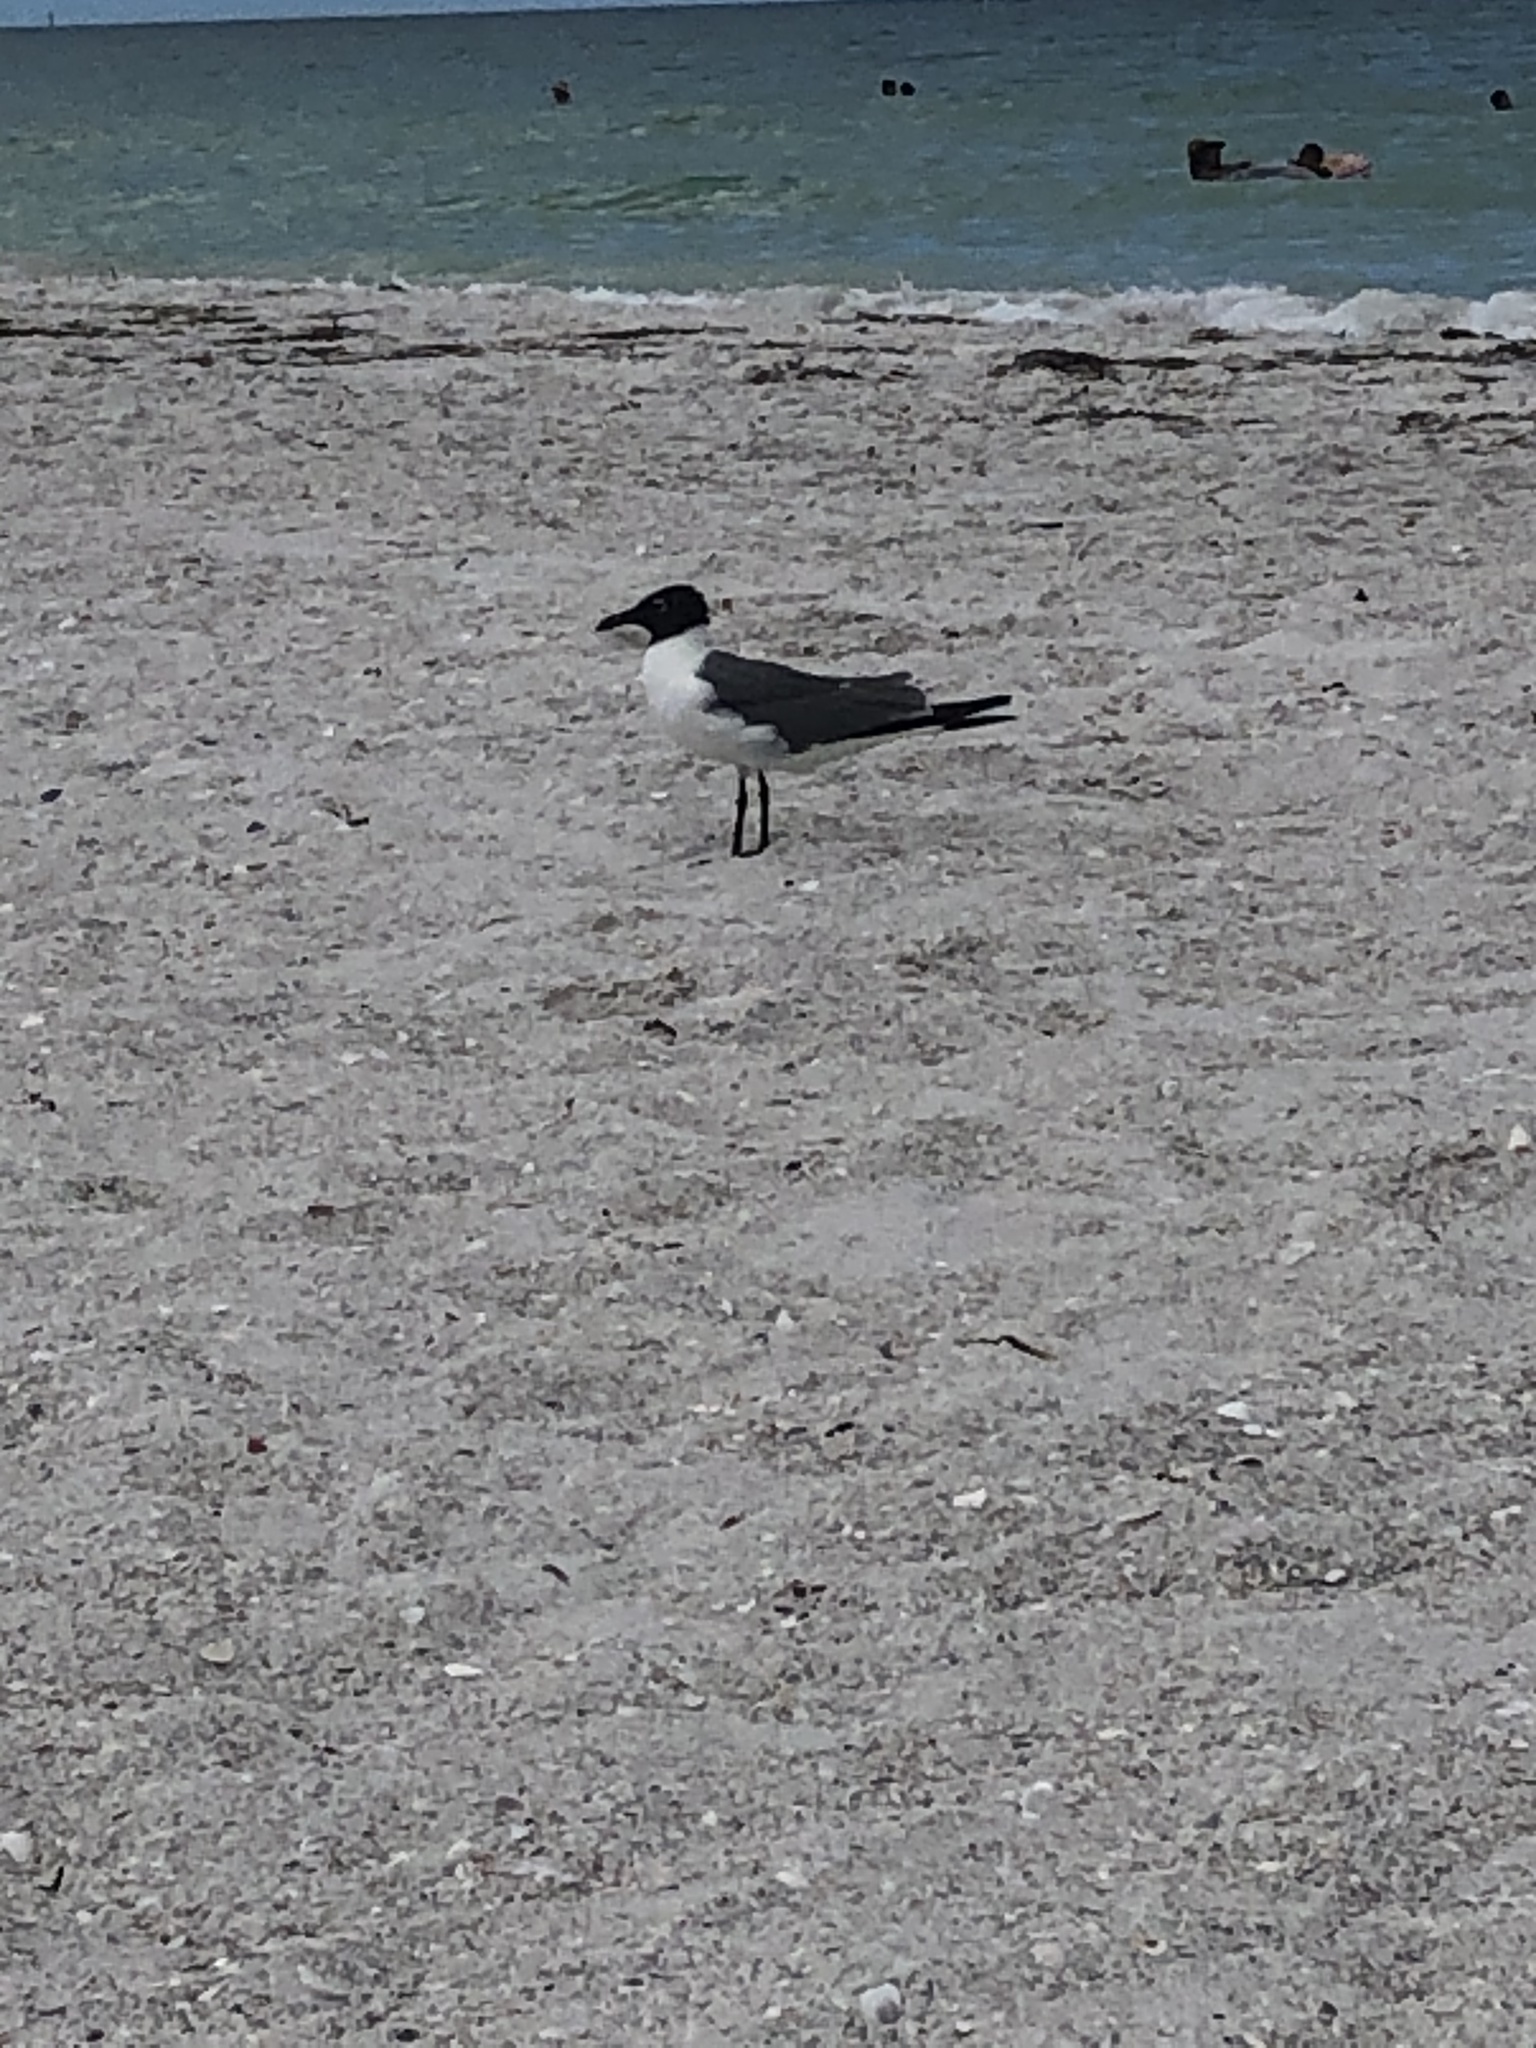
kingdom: Animalia
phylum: Chordata
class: Aves
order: Charadriiformes
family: Laridae
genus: Leucophaeus
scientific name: Leucophaeus atricilla
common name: Laughing gull
